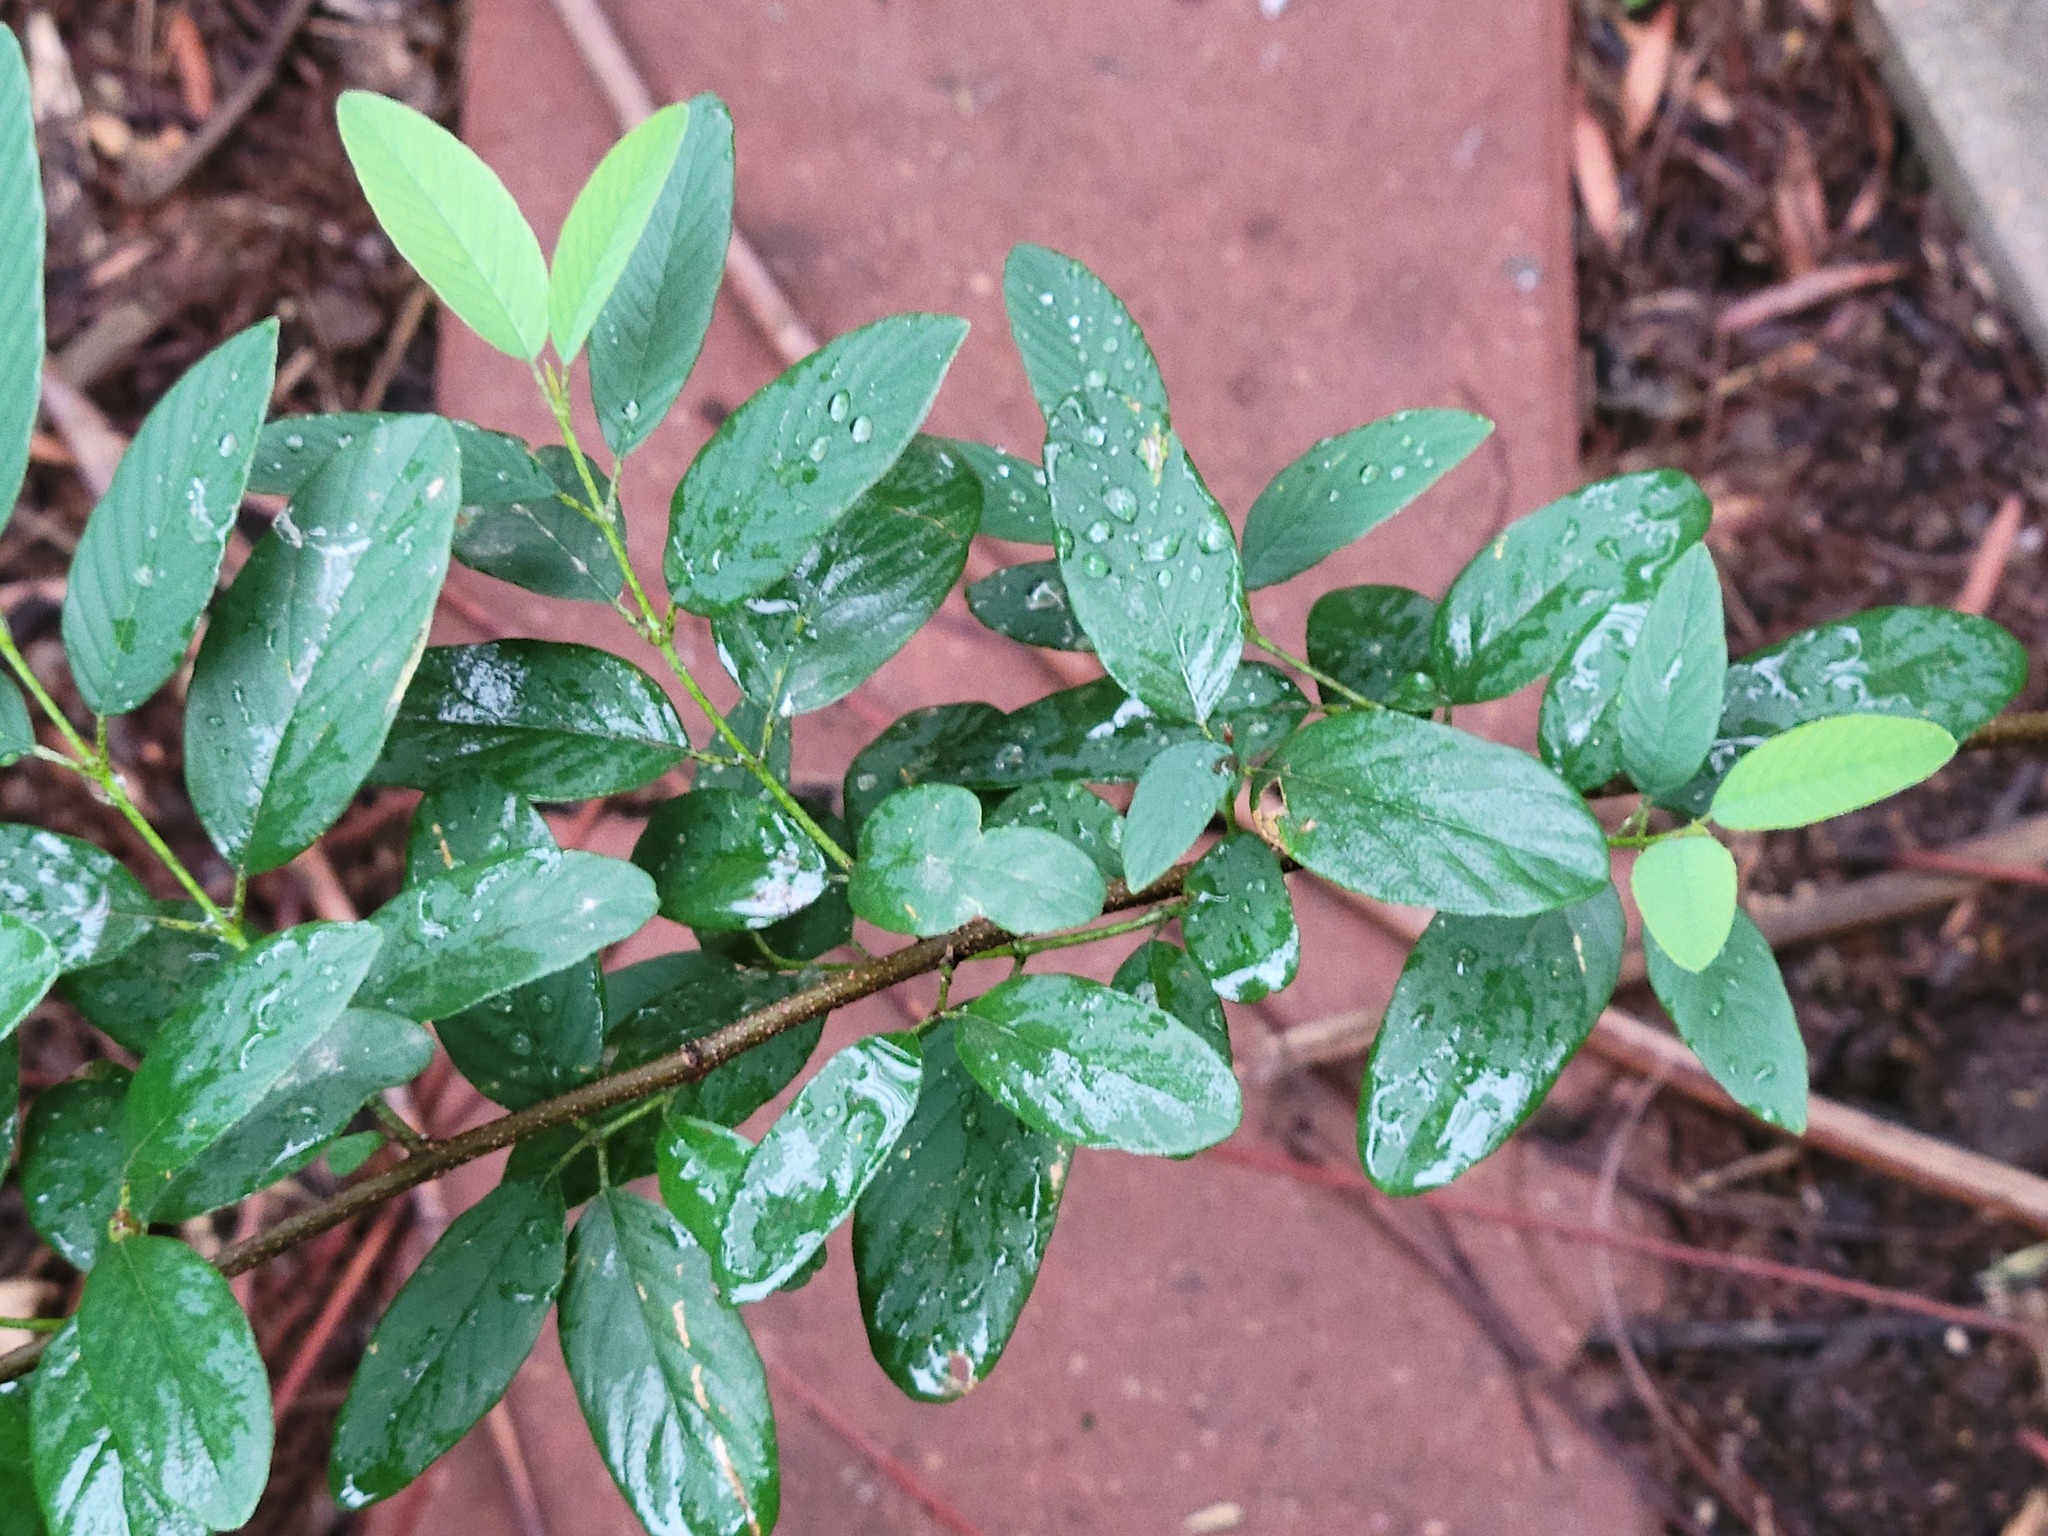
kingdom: Plantae
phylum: Tracheophyta
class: Magnoliopsida
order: Rosales
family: Rhamnaceae
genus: Karwinskia
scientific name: Karwinskia humboldtiana
